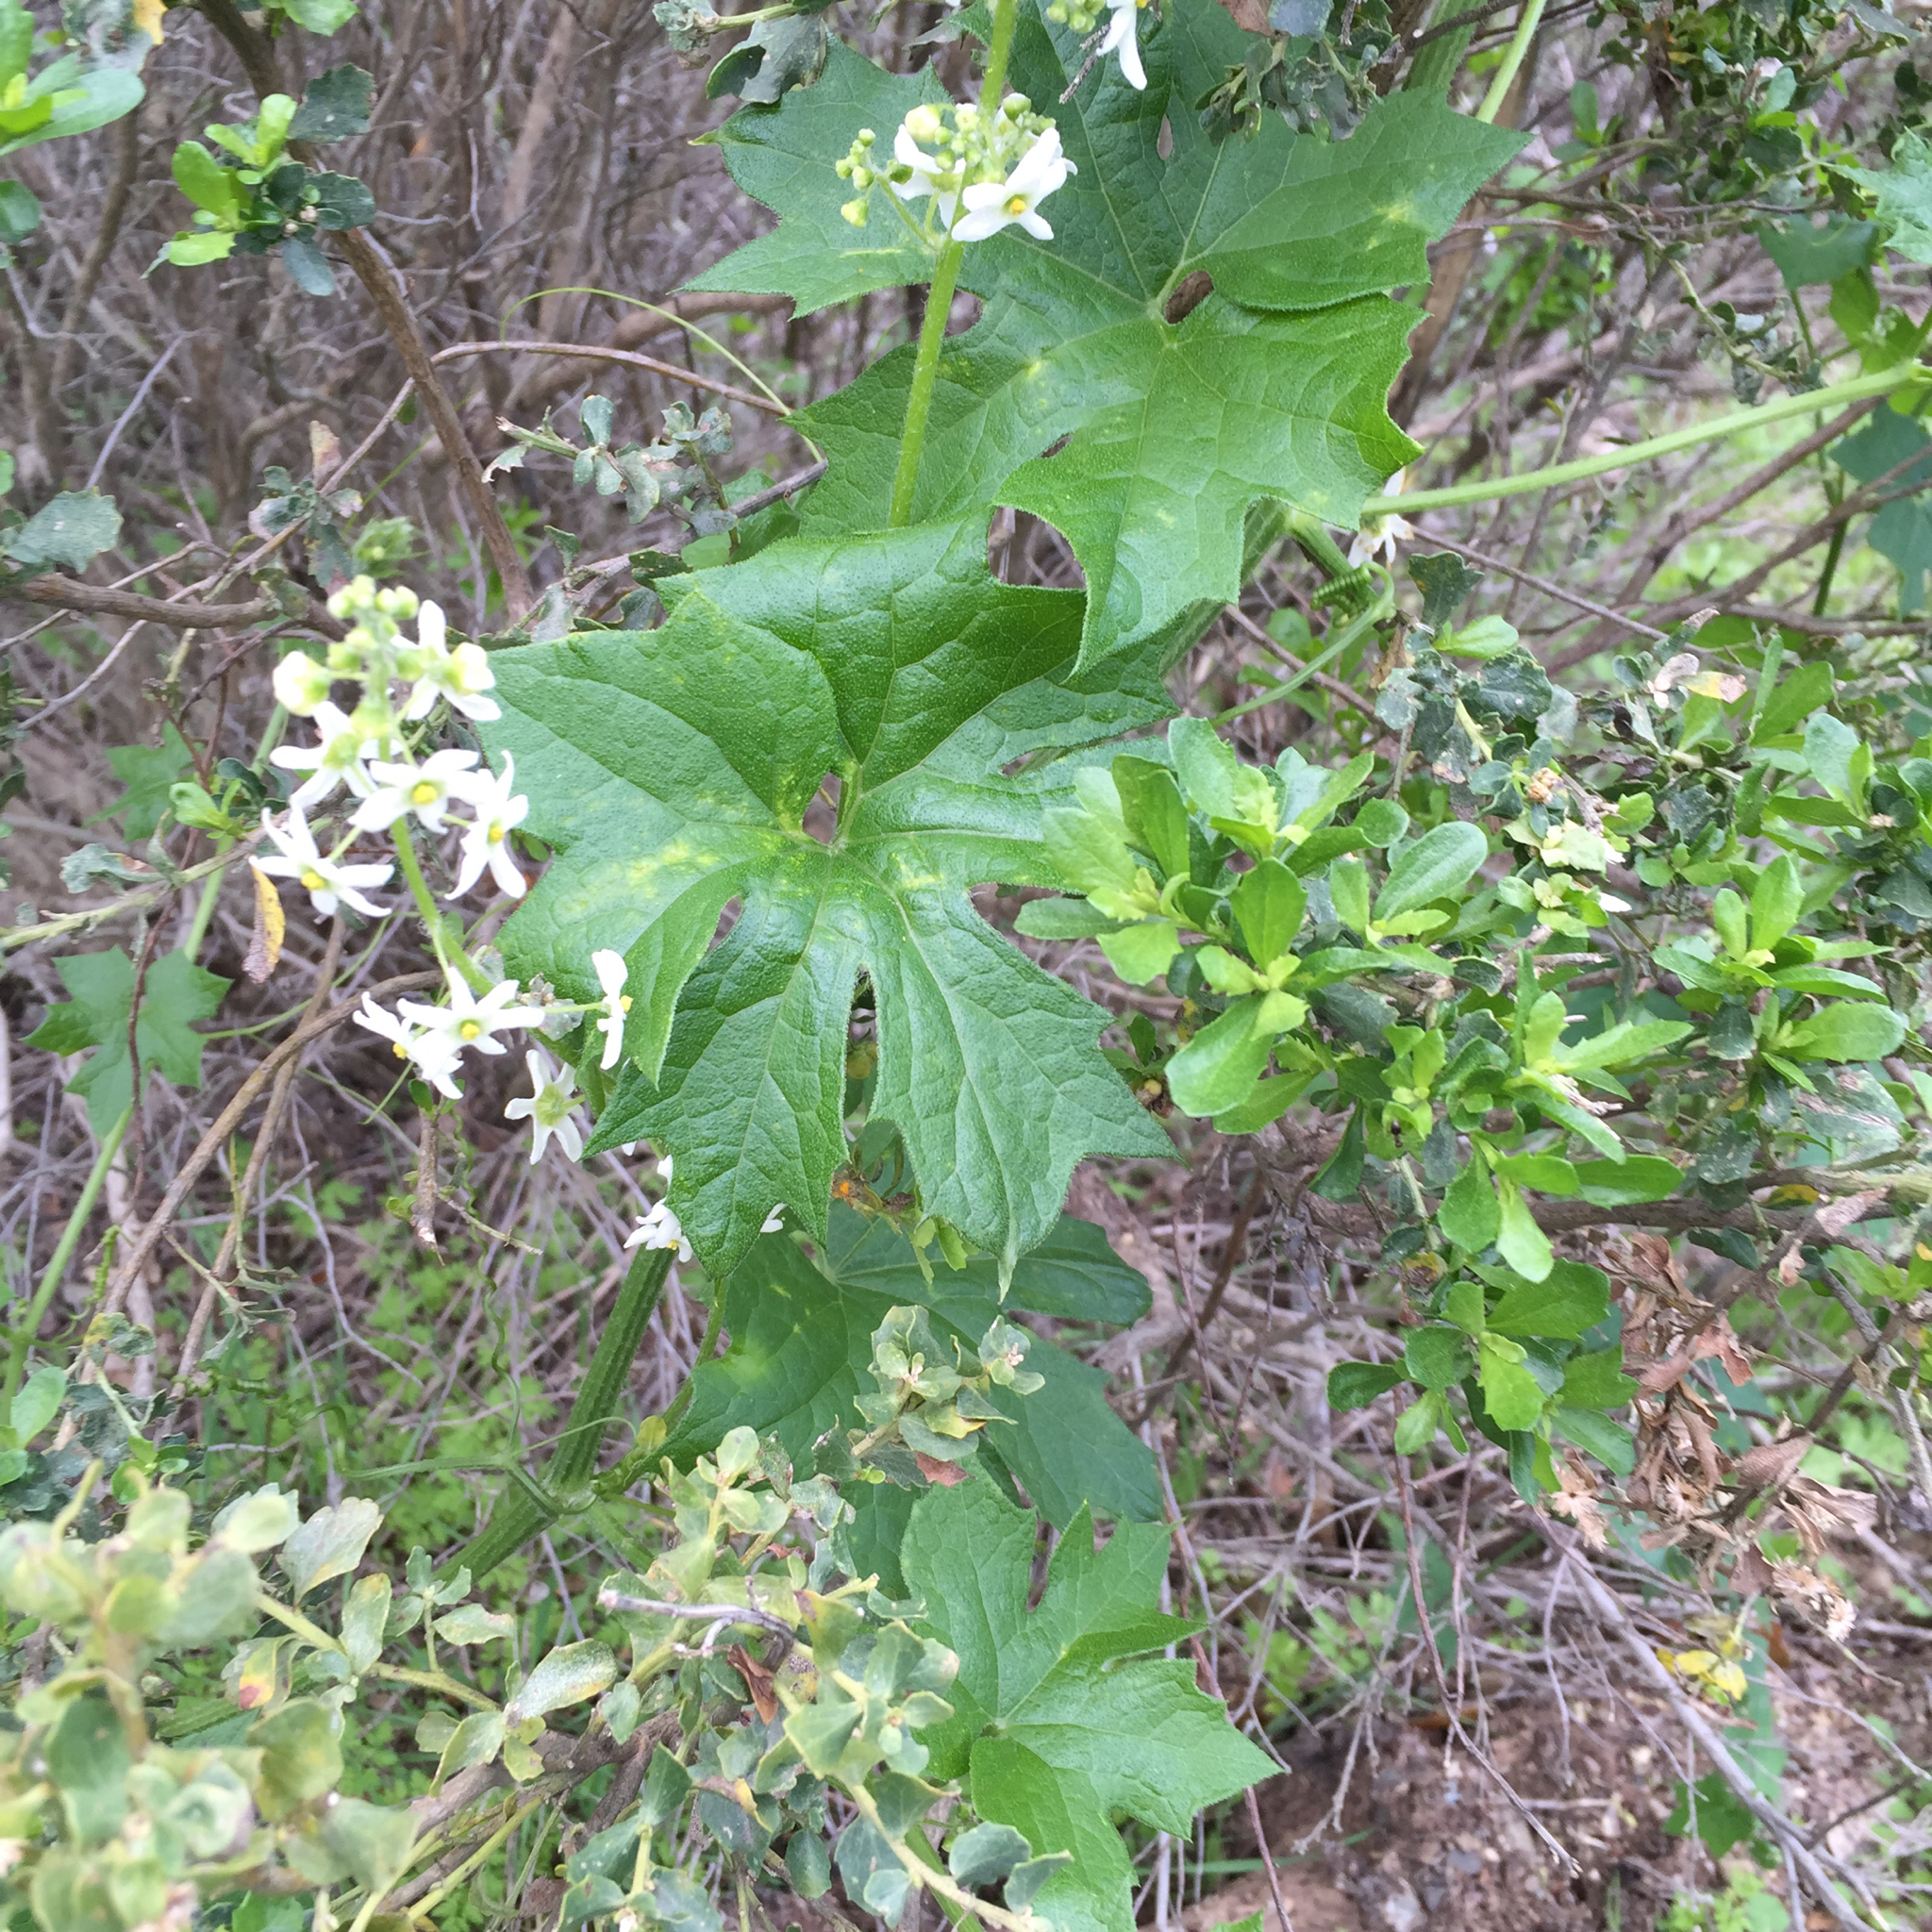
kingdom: Plantae
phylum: Tracheophyta
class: Magnoliopsida
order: Cucurbitales
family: Cucurbitaceae
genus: Marah
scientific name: Marah fabacea
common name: California manroot
